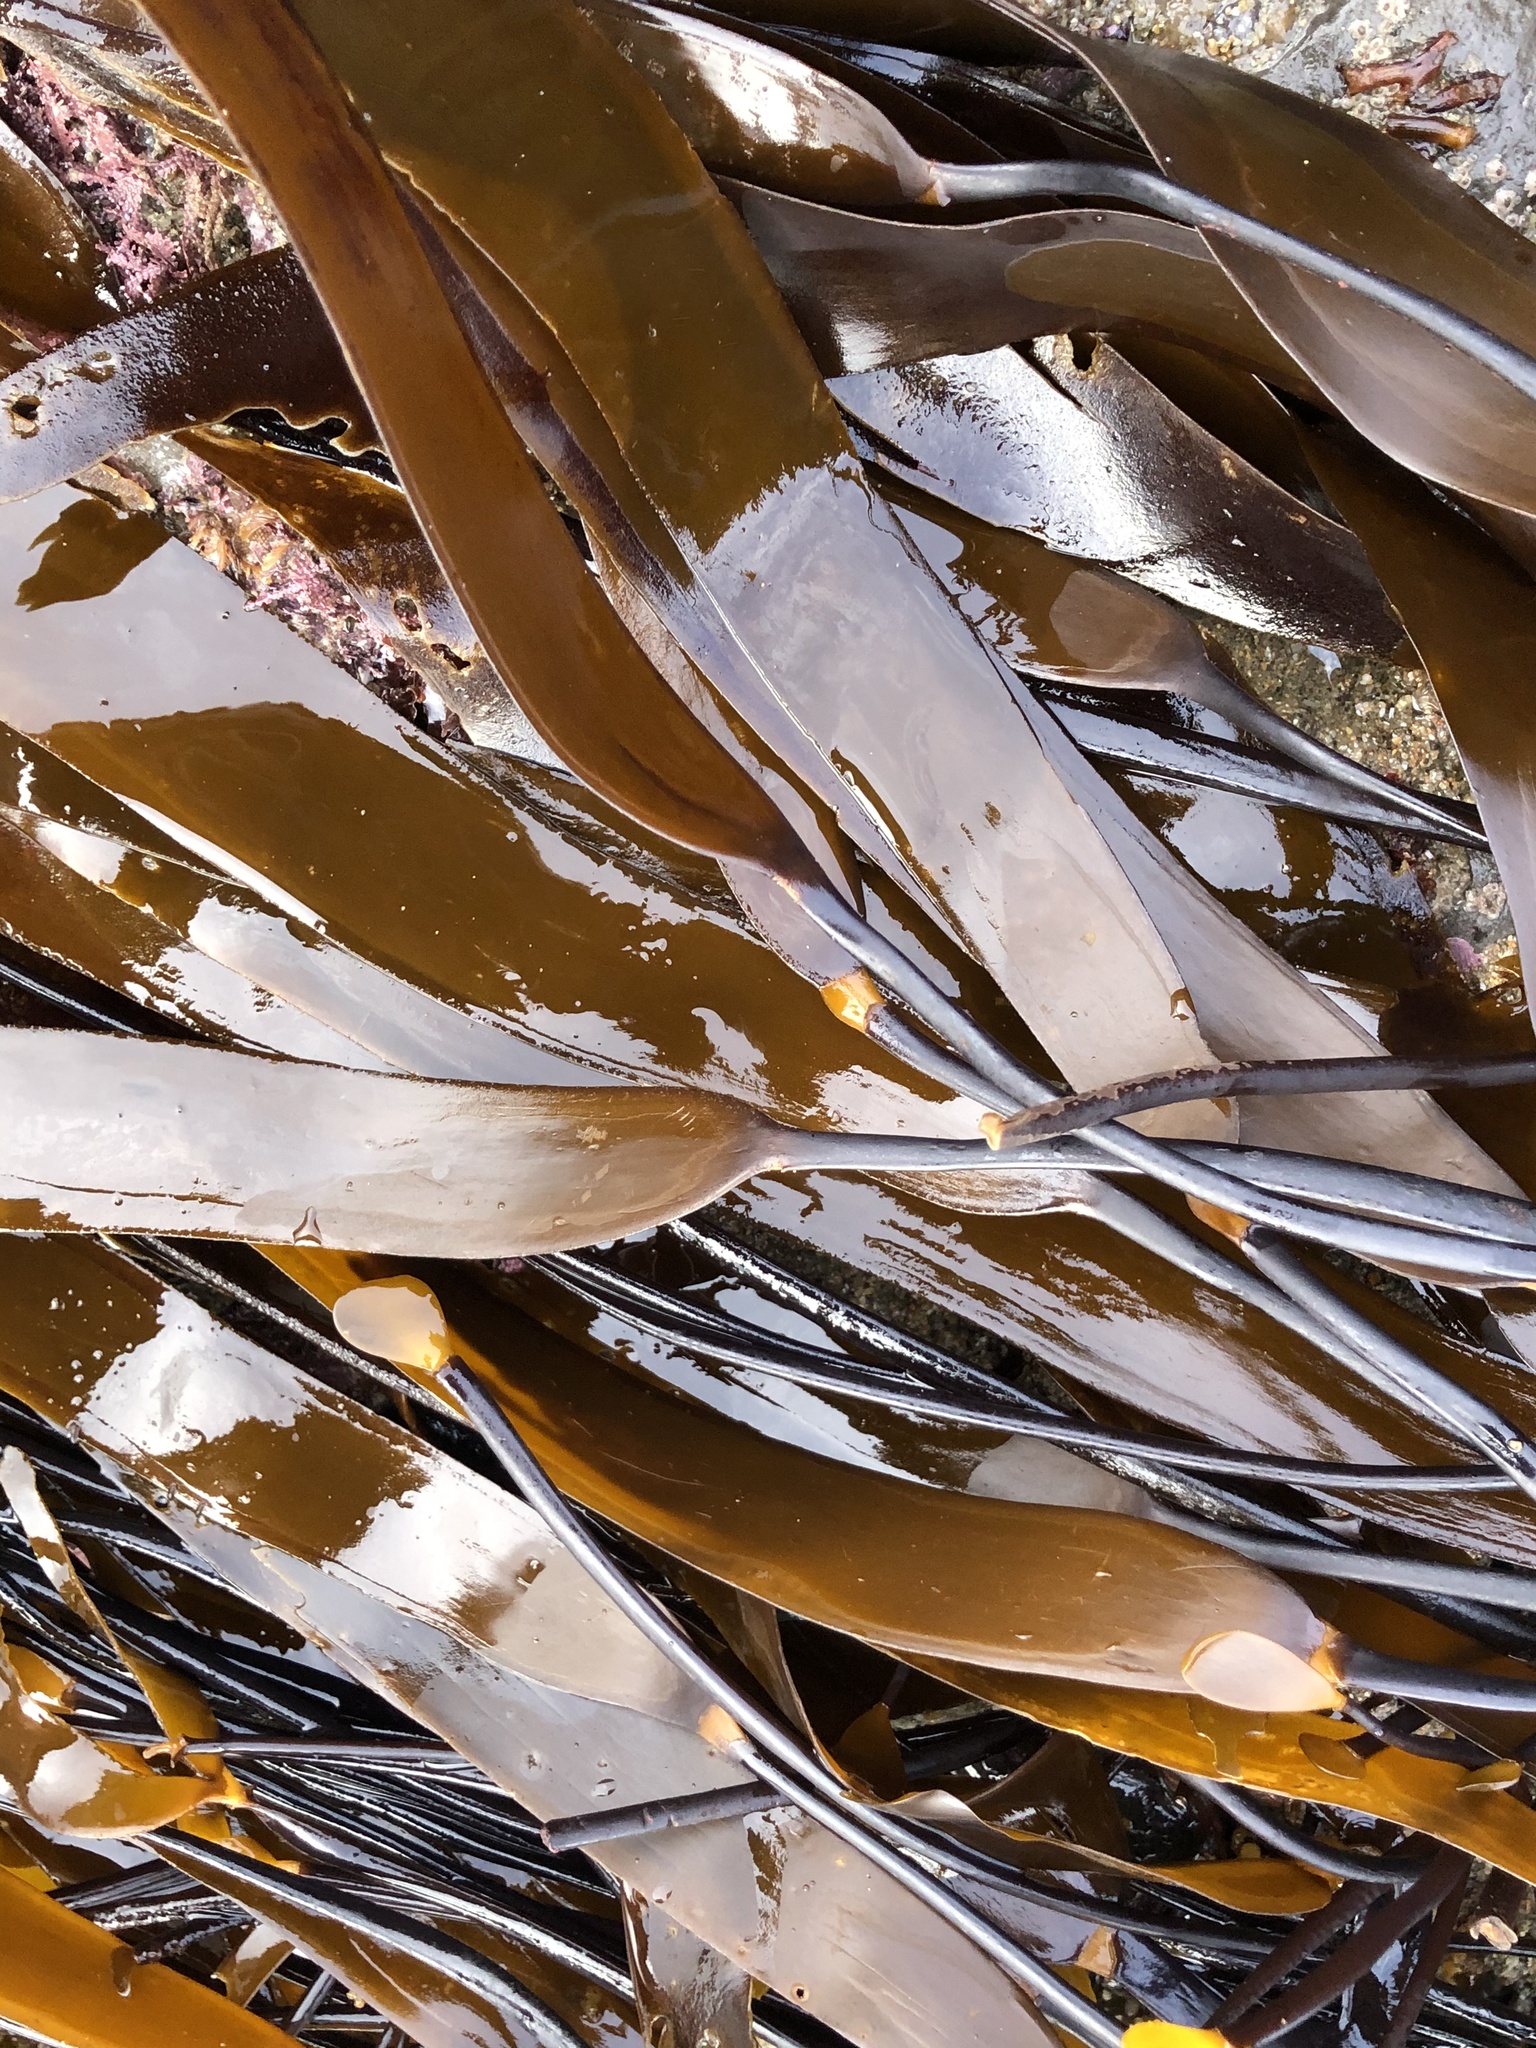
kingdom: Chromista
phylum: Ochrophyta
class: Phaeophyceae
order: Laminariales
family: Laminariaceae
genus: Laminaria
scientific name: Laminaria sinclairii
